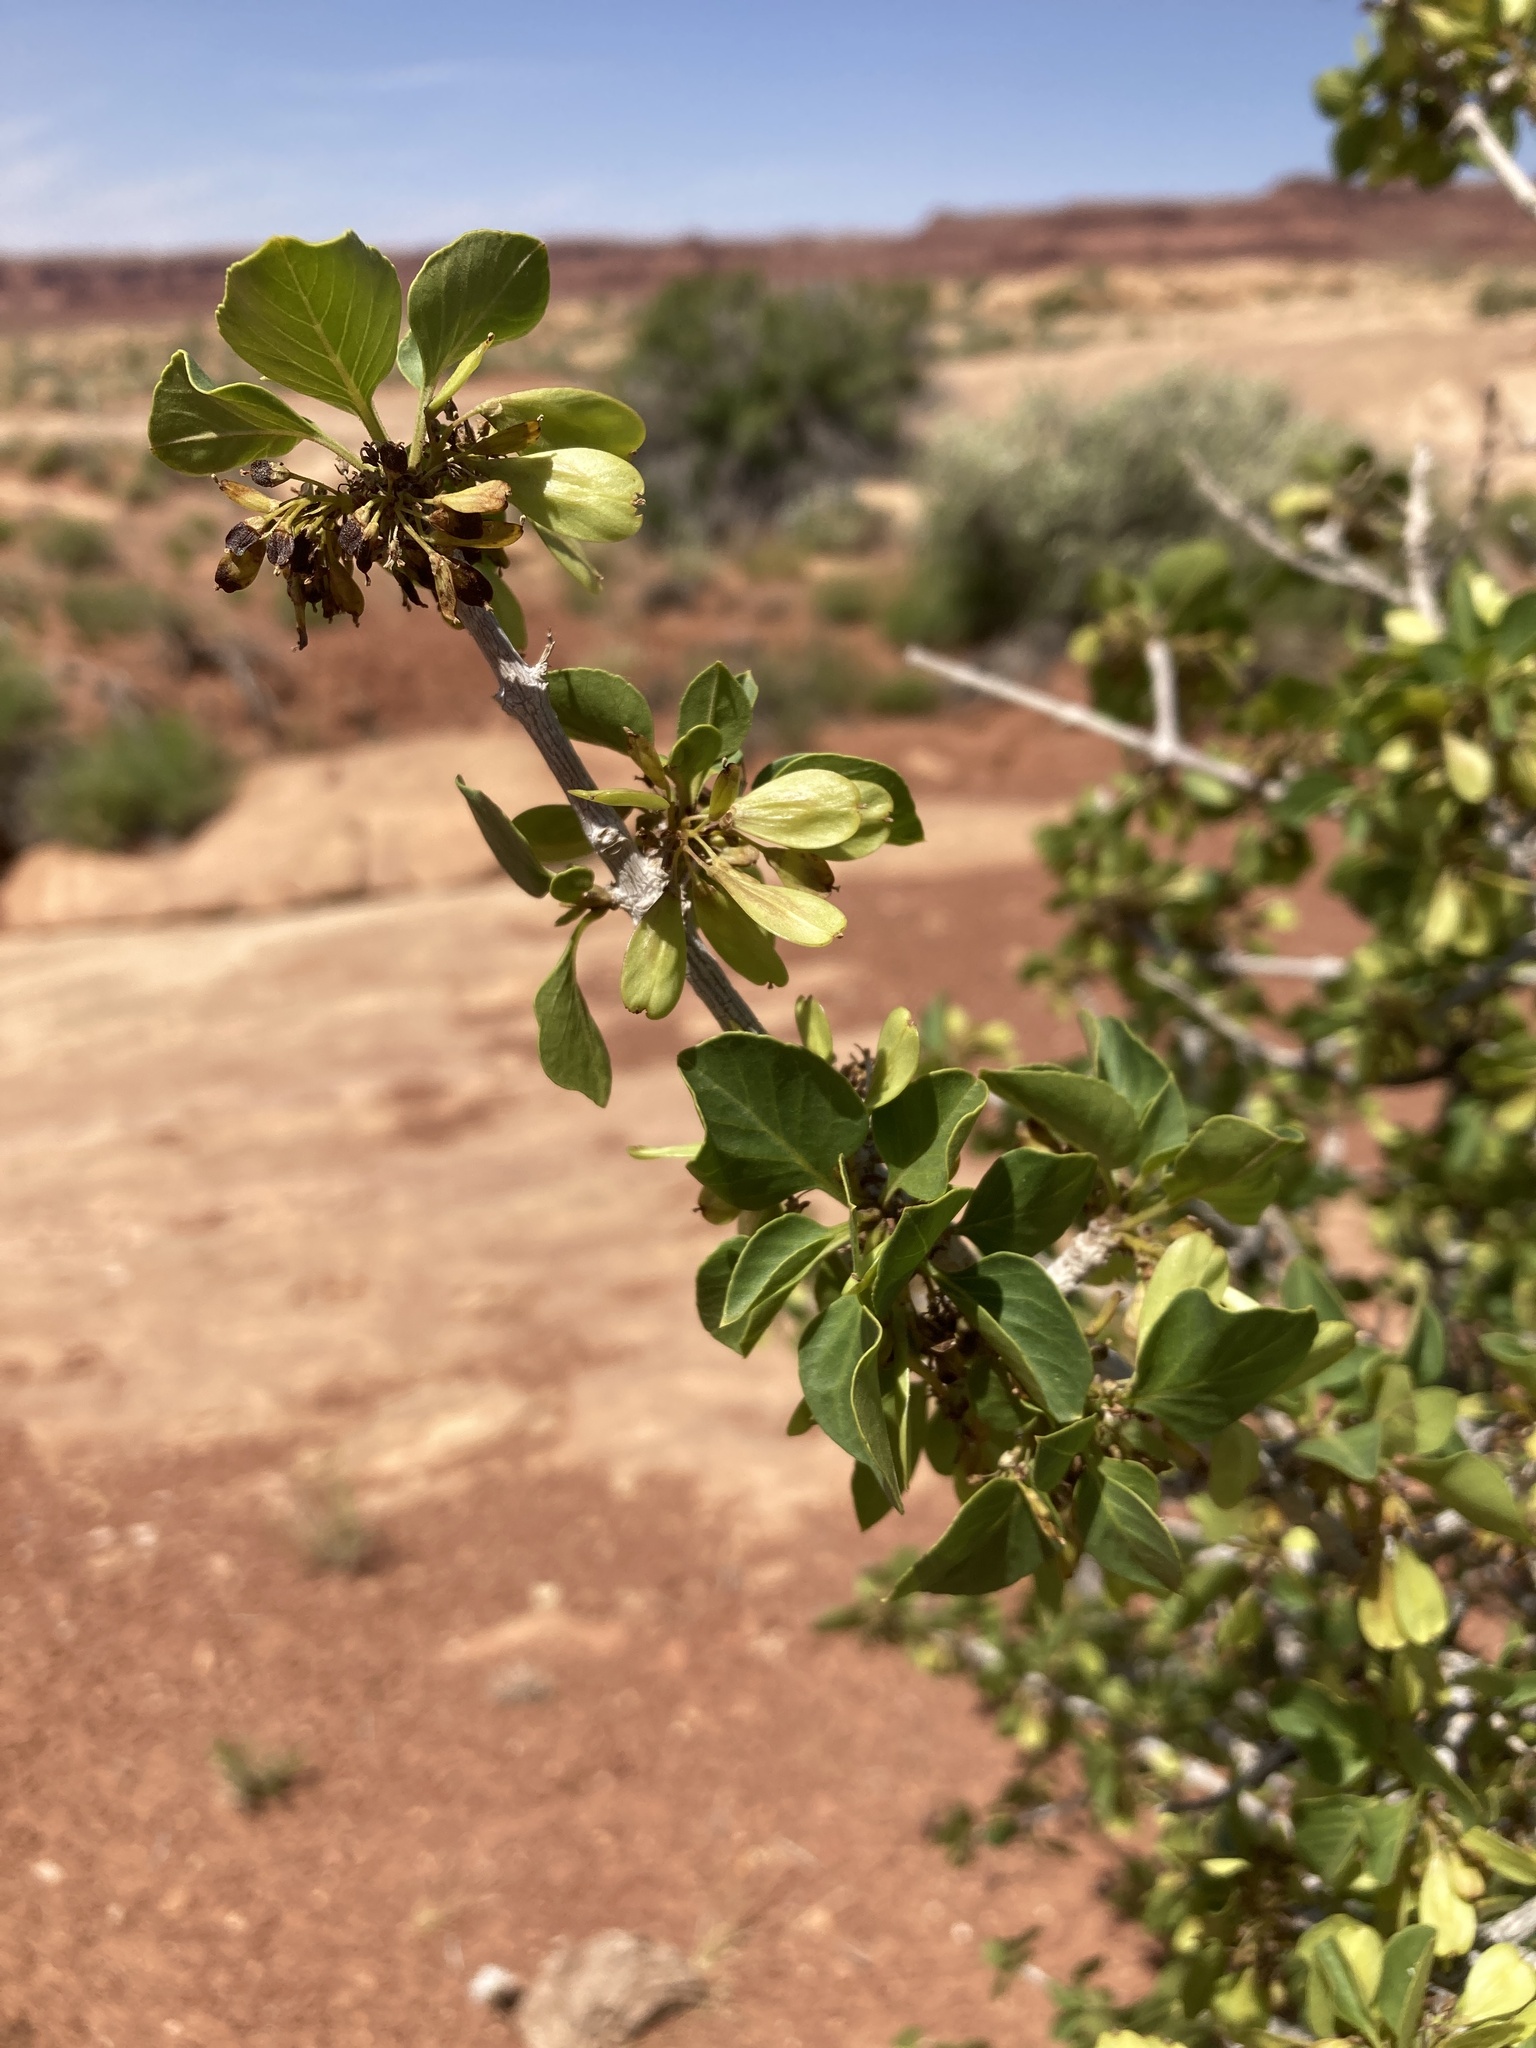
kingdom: Plantae
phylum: Tracheophyta
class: Magnoliopsida
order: Lamiales
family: Oleaceae
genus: Fraxinus
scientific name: Fraxinus anomala
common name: Utah ash
